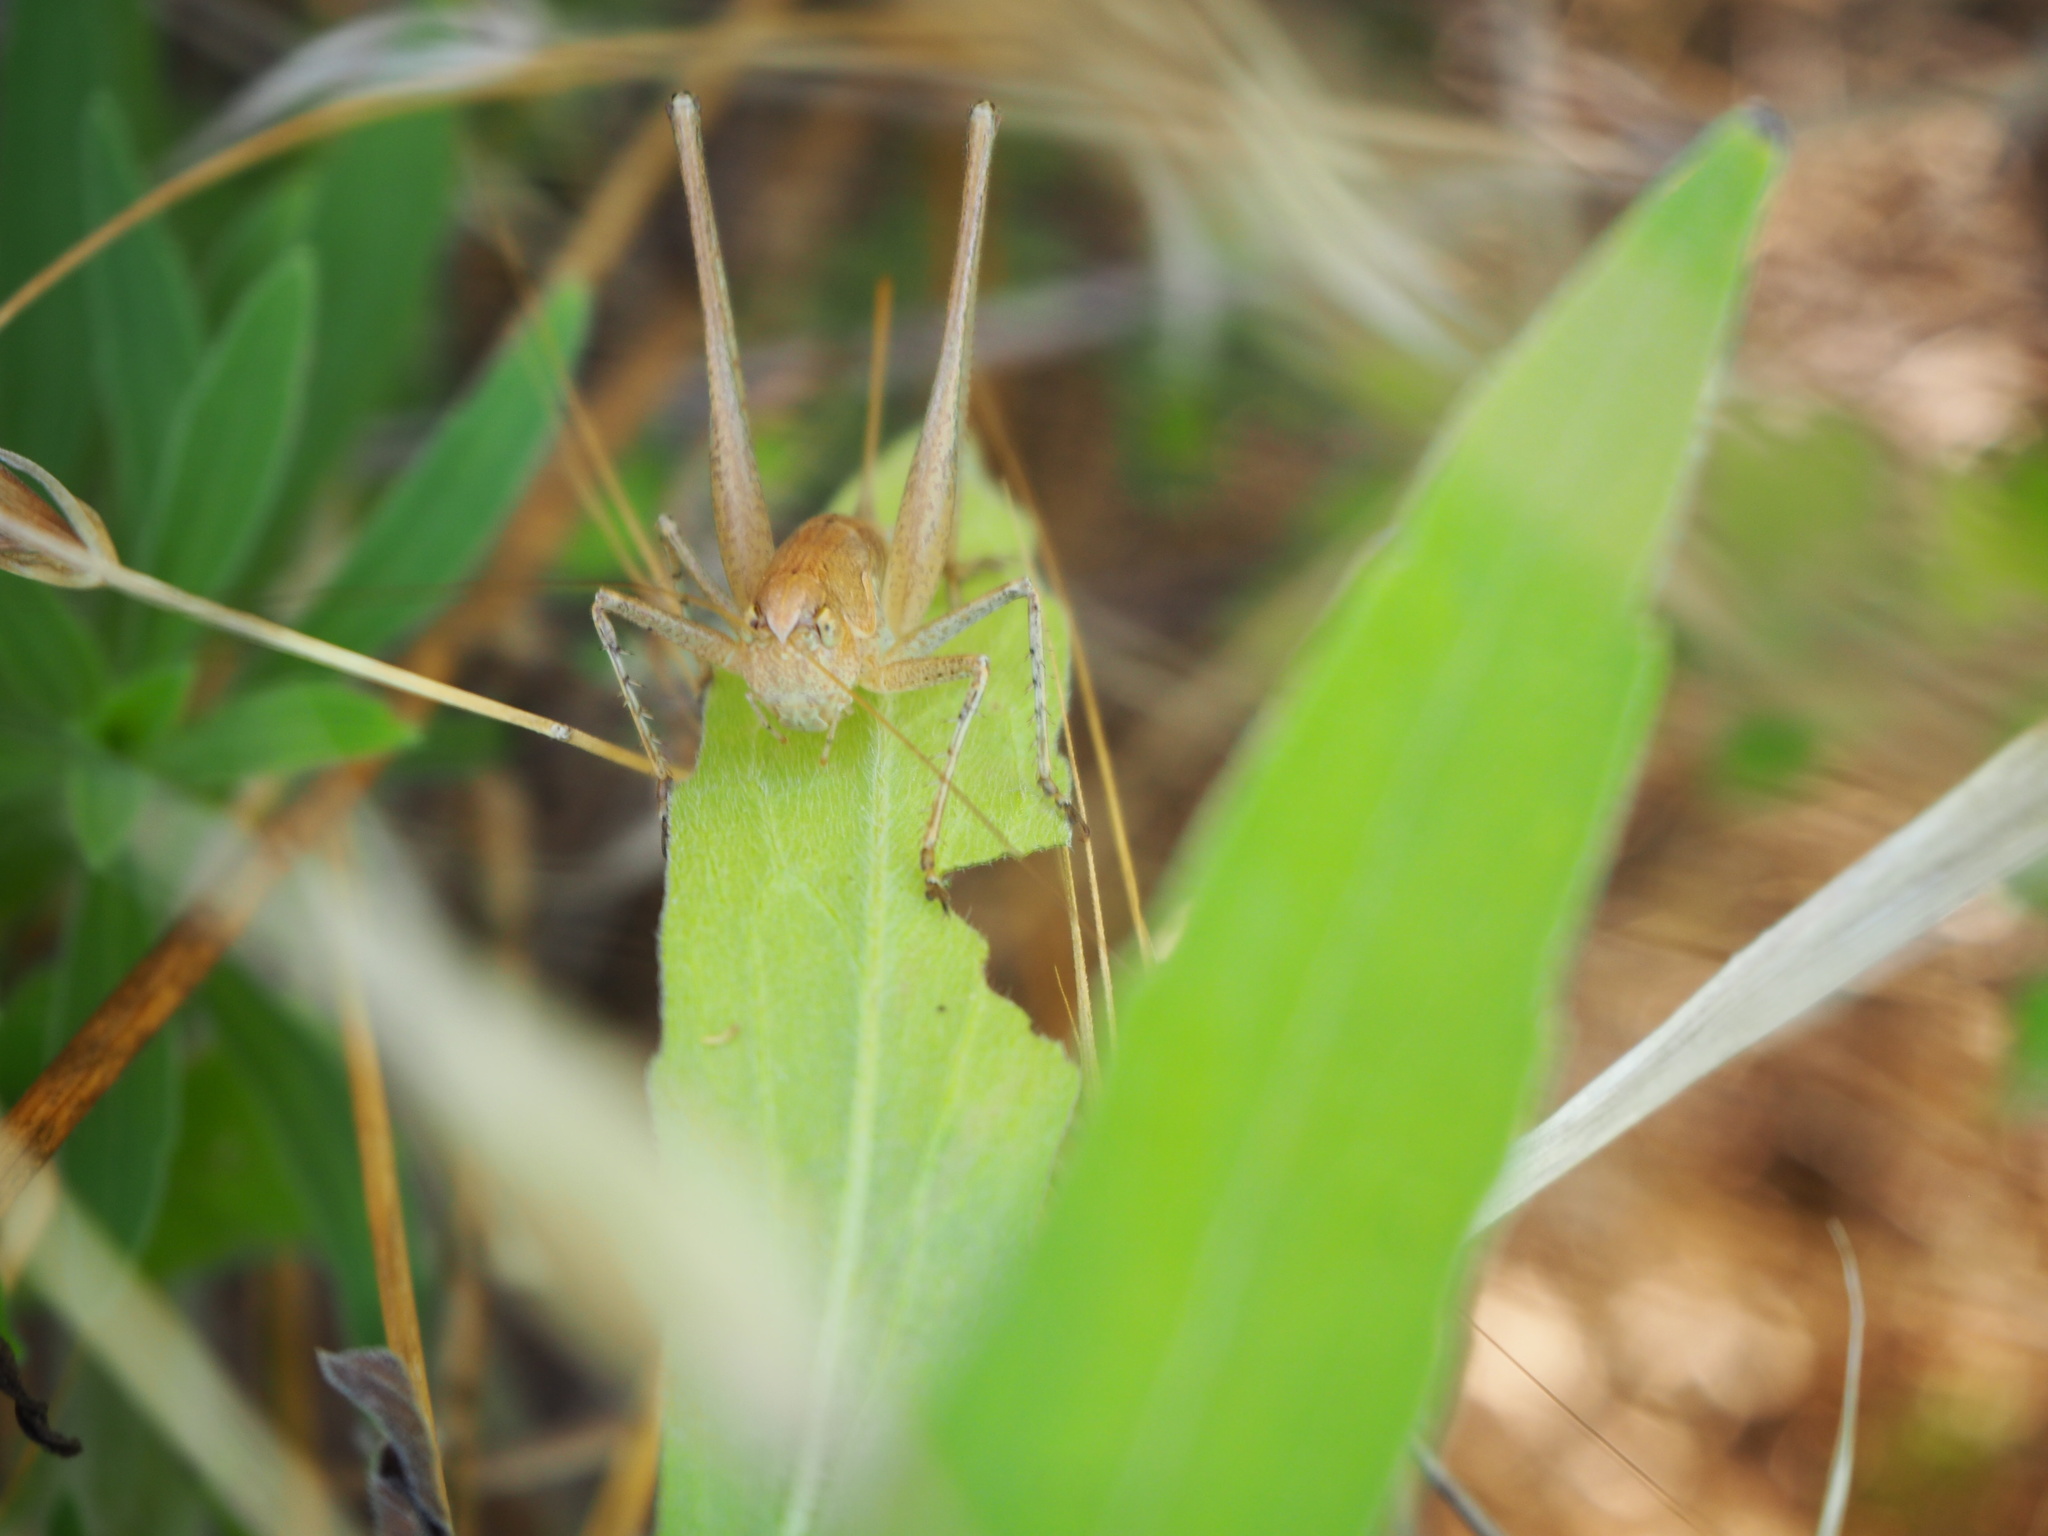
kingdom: Animalia
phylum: Arthropoda
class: Insecta
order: Orthoptera
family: Tettigoniidae
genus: Rhacocleis
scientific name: Rhacocleis germanica
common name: Mediterranean bush-cricket
